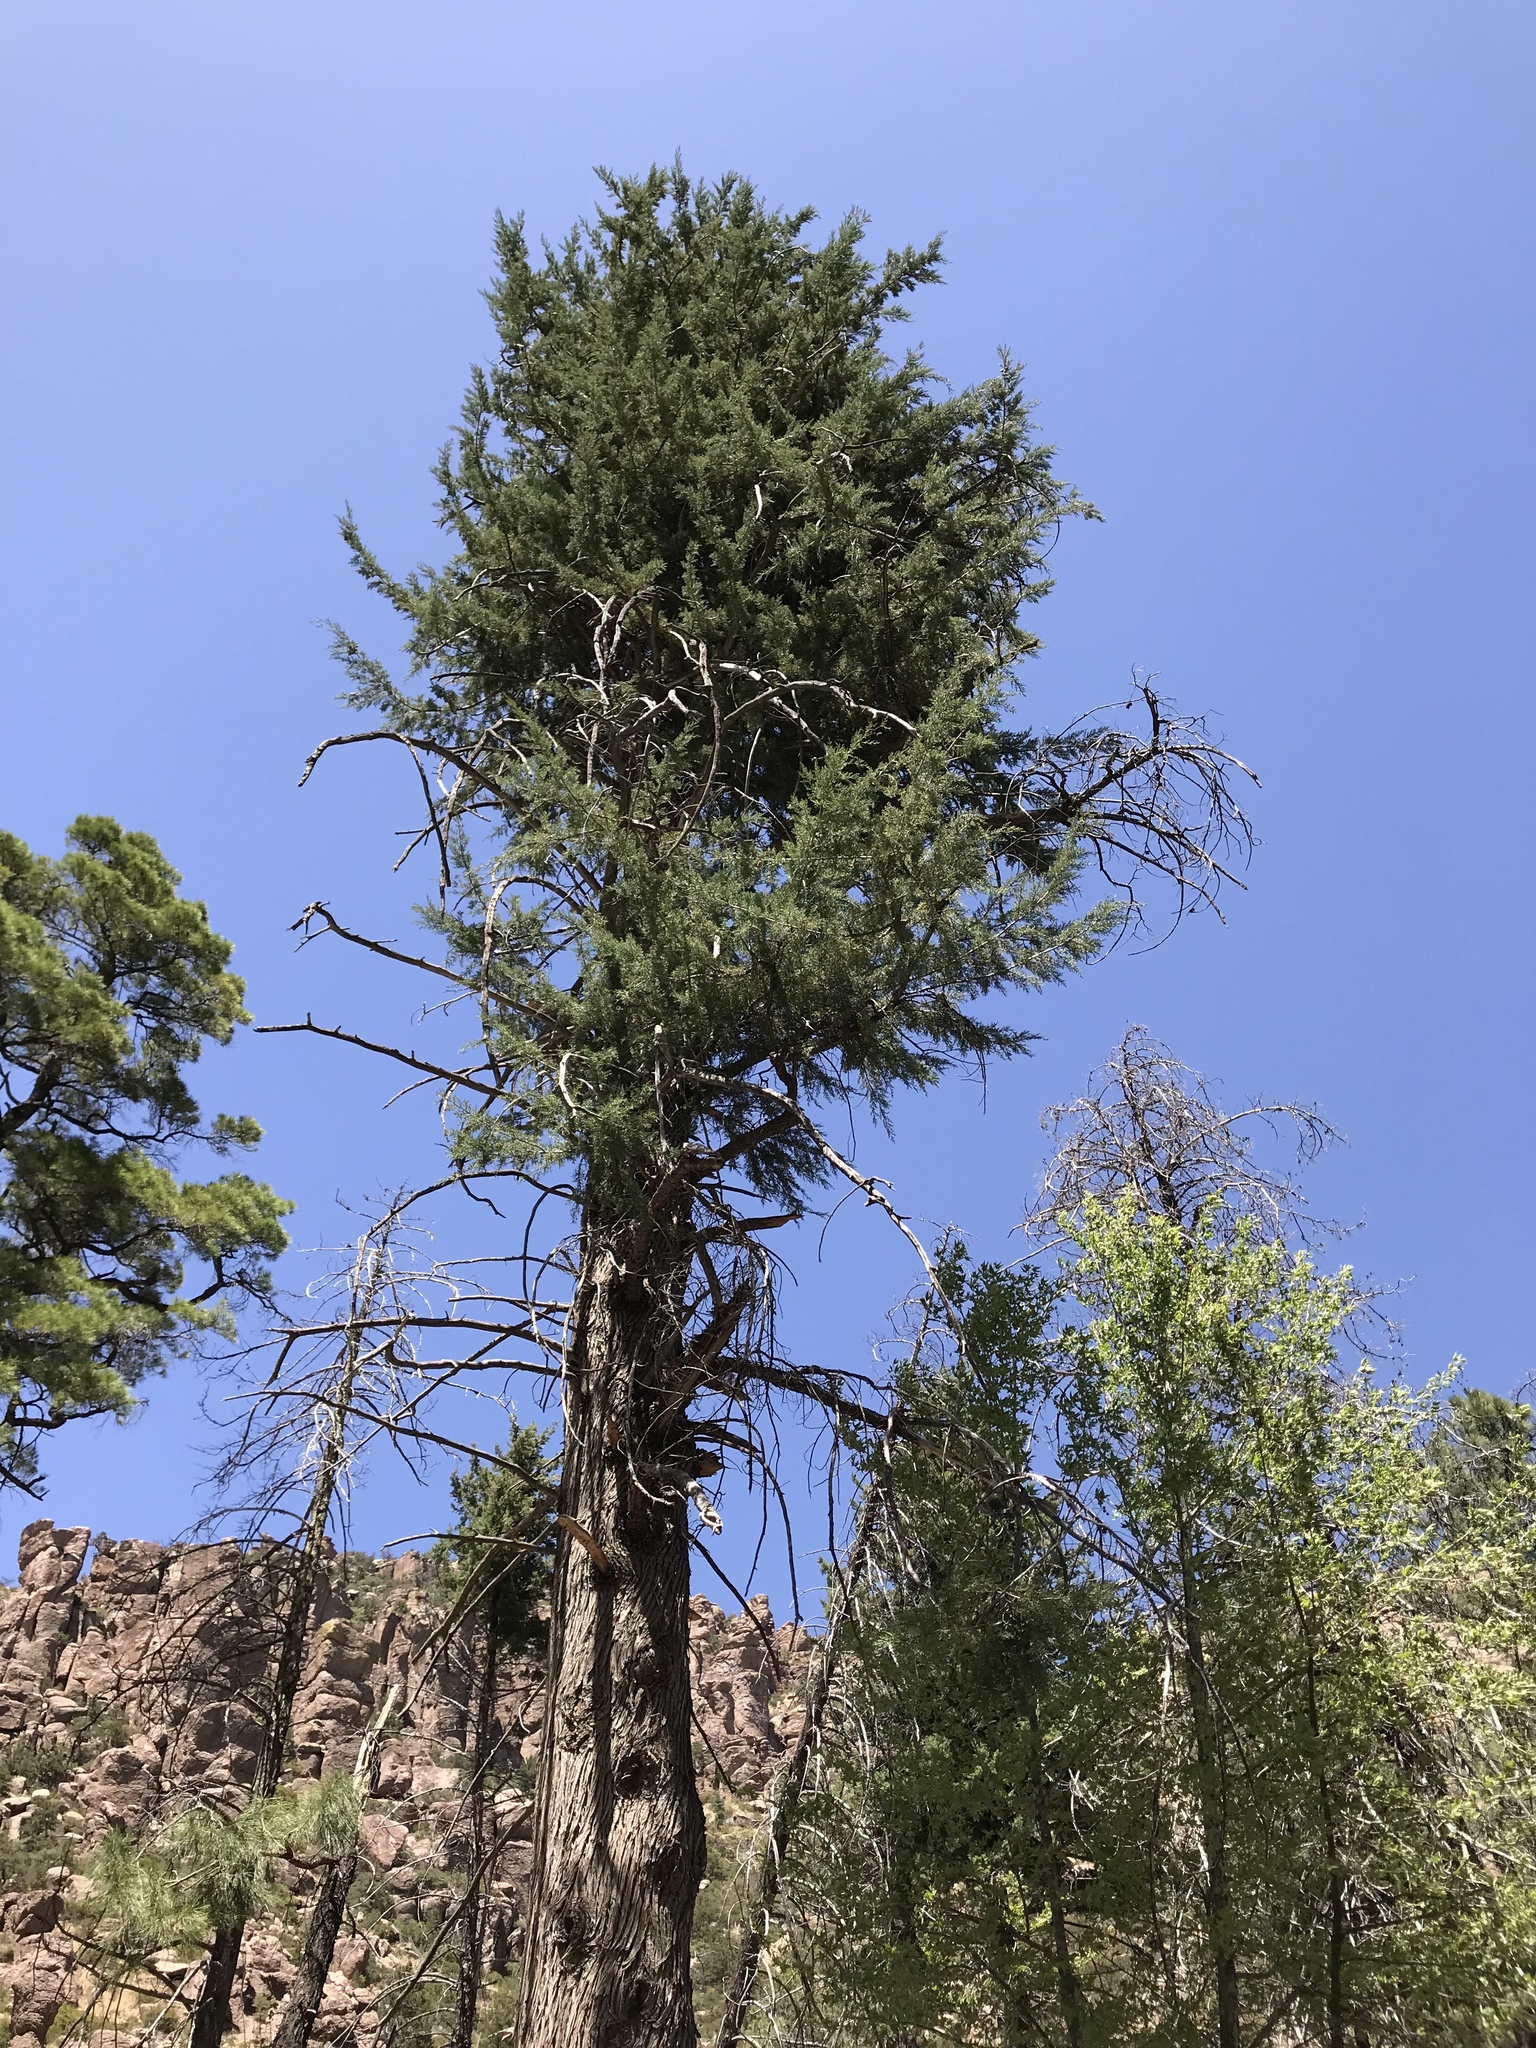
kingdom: Plantae
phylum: Tracheophyta
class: Pinopsida
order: Pinales
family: Cupressaceae
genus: Cupressus
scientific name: Cupressus arizonica
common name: Arizona cypress
